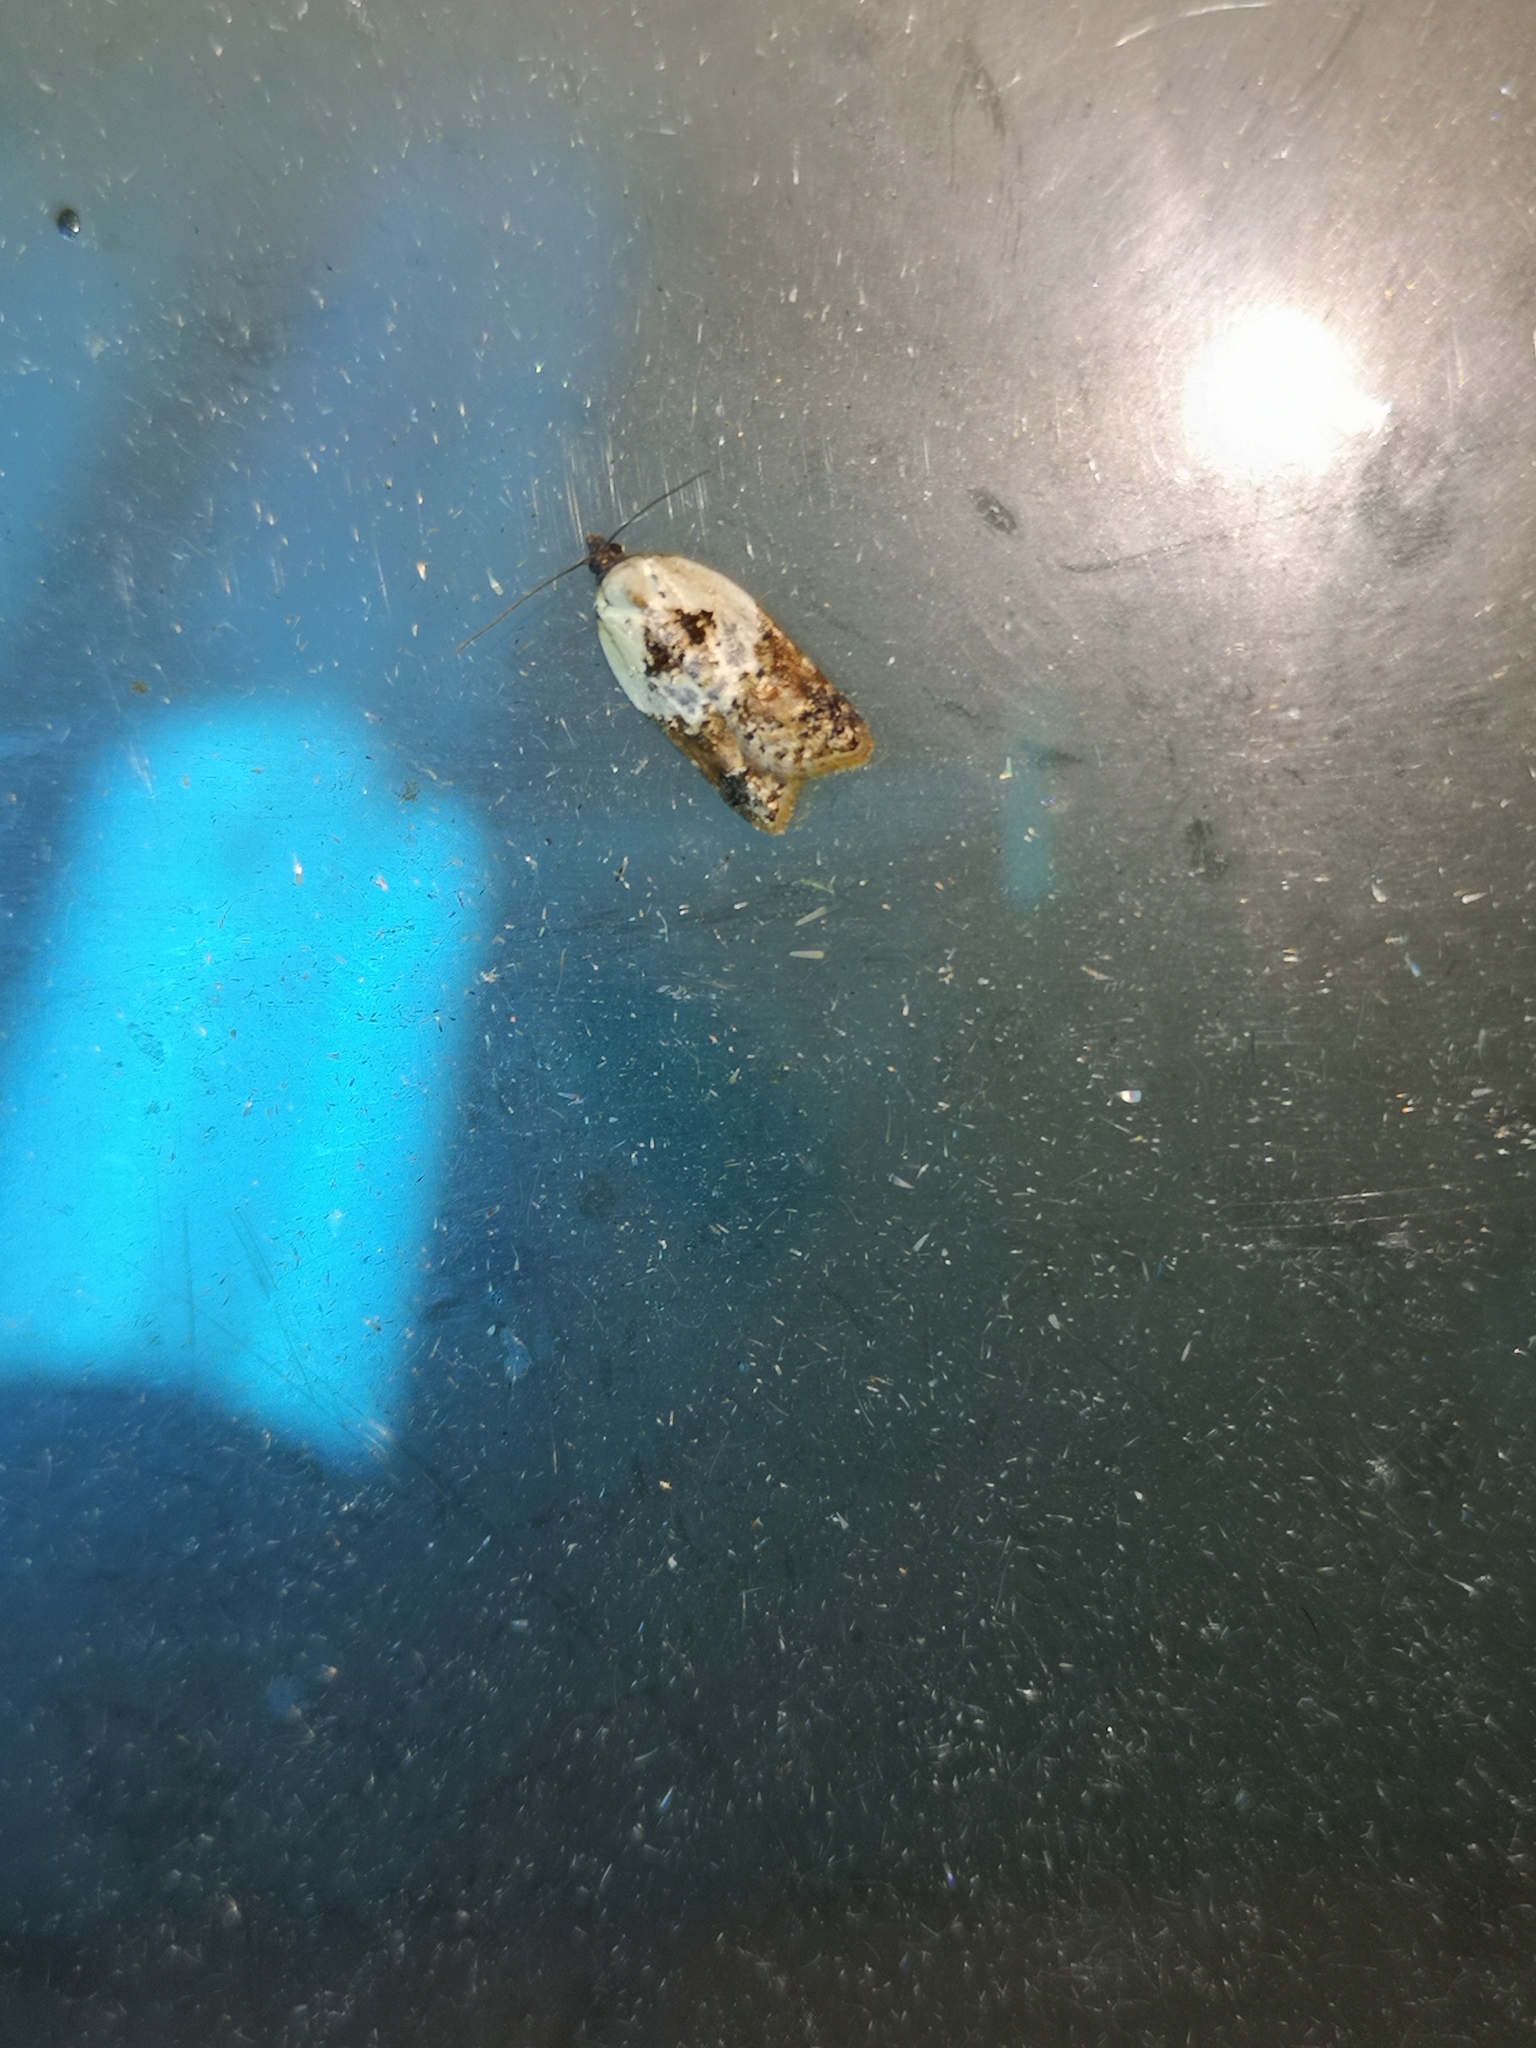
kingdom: Animalia
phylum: Arthropoda
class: Insecta
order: Lepidoptera
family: Tortricidae
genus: Acleris
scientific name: Acleris variegana
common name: Garden rose tortrix
